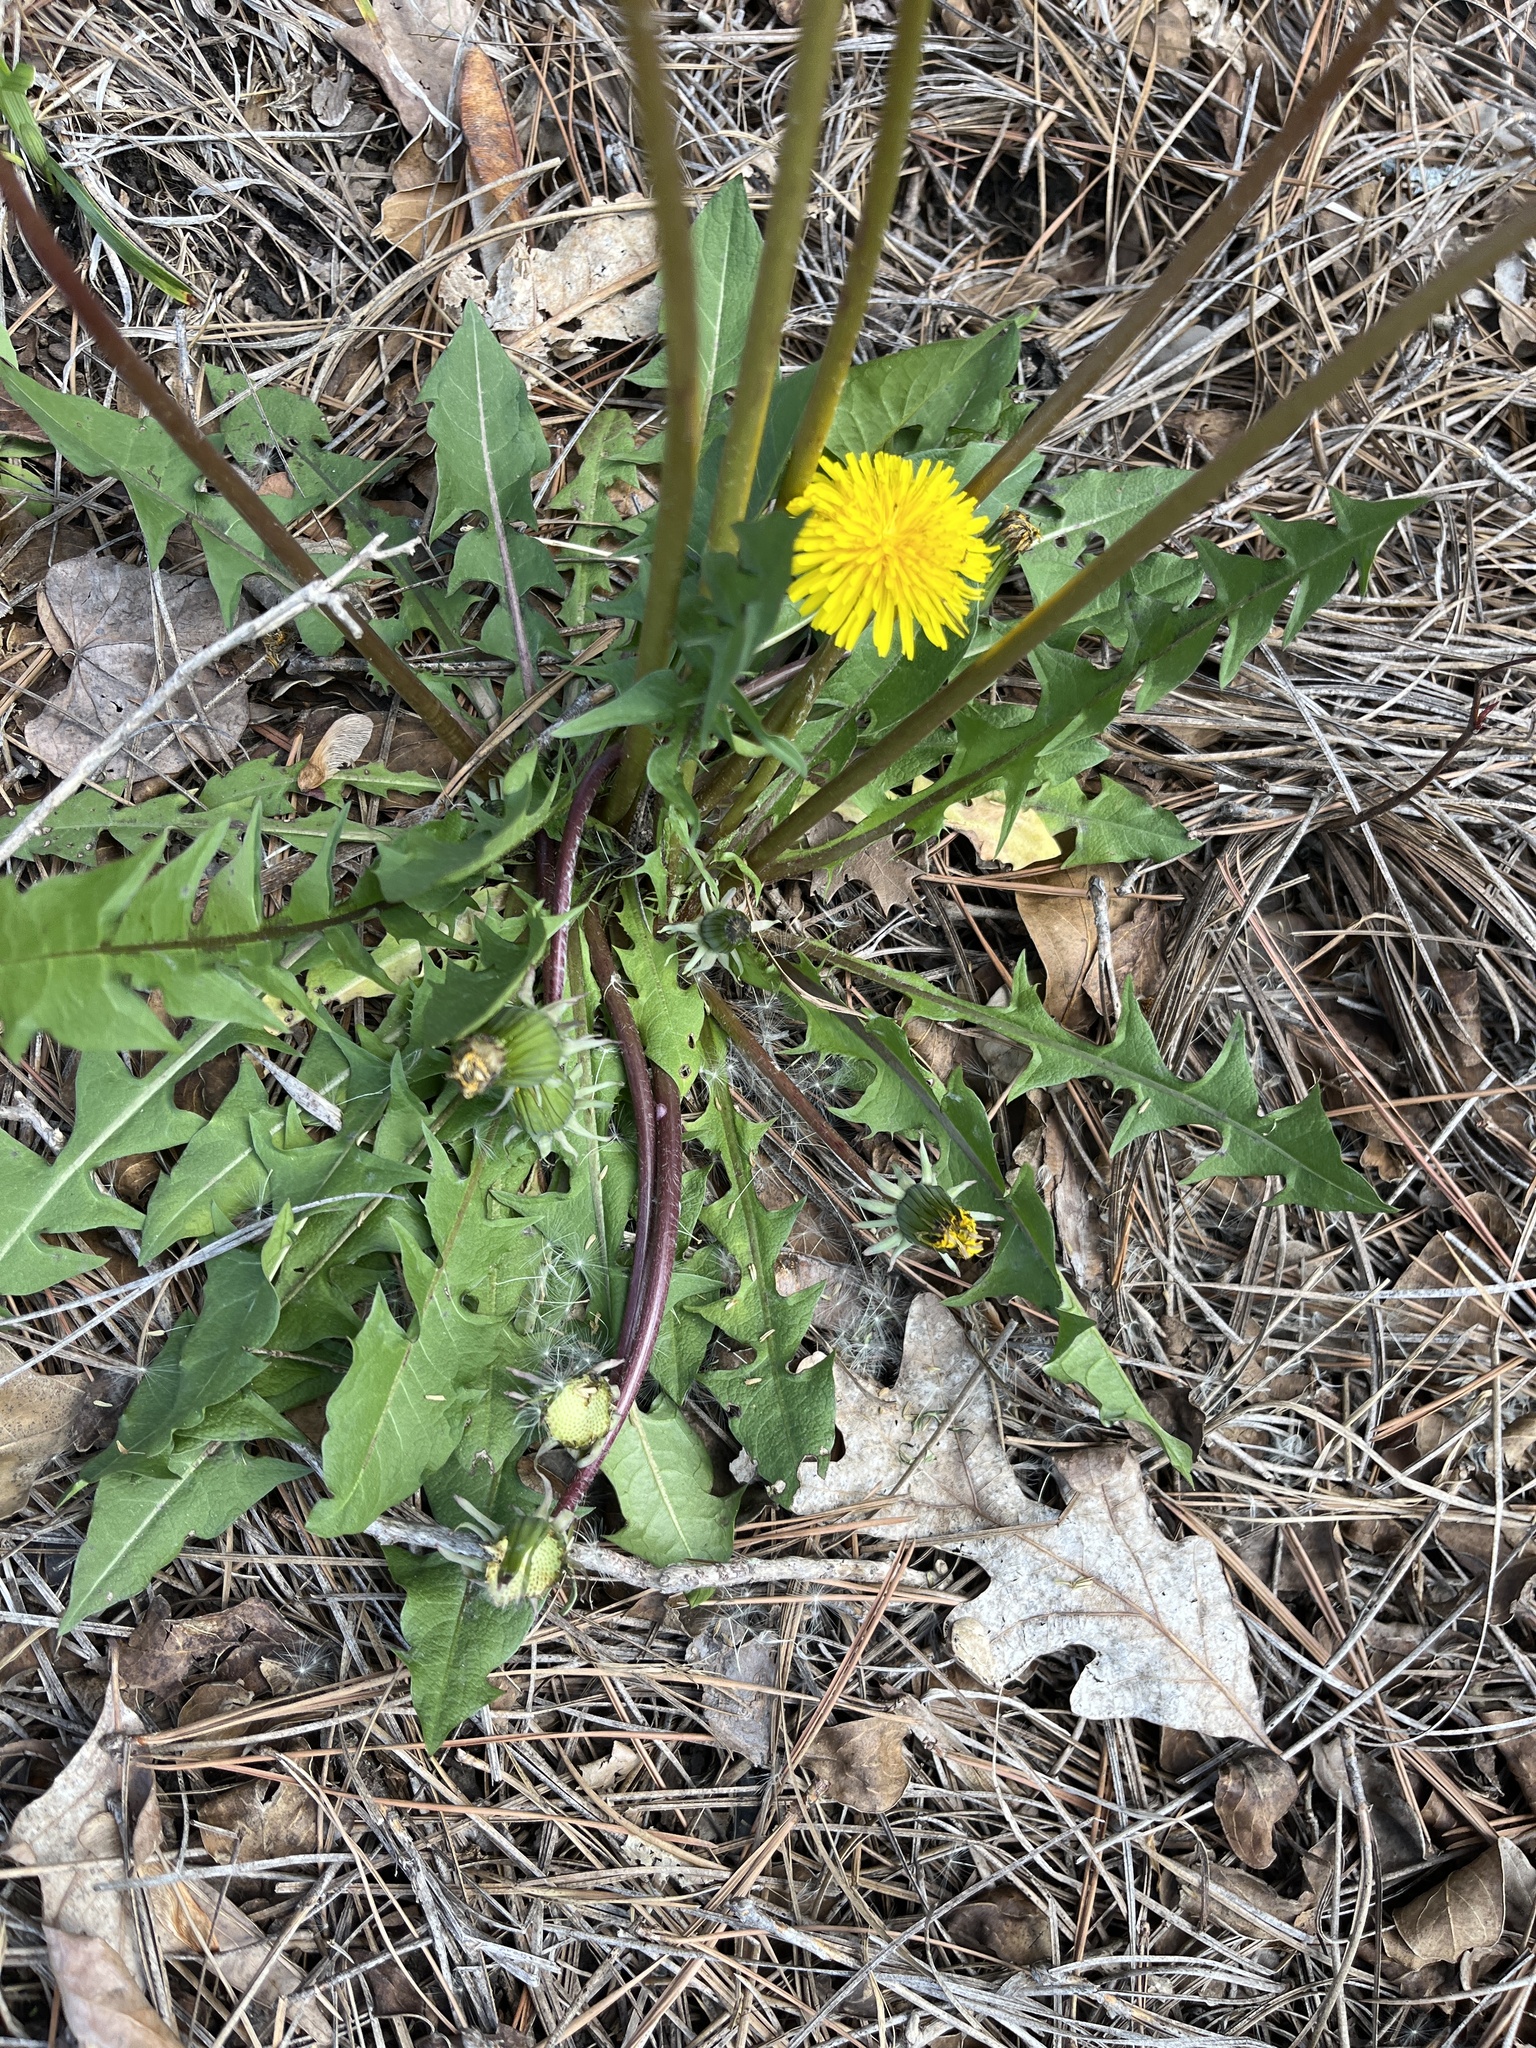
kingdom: Plantae
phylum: Tracheophyta
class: Magnoliopsida
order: Asterales
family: Asteraceae
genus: Taraxacum
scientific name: Taraxacum
